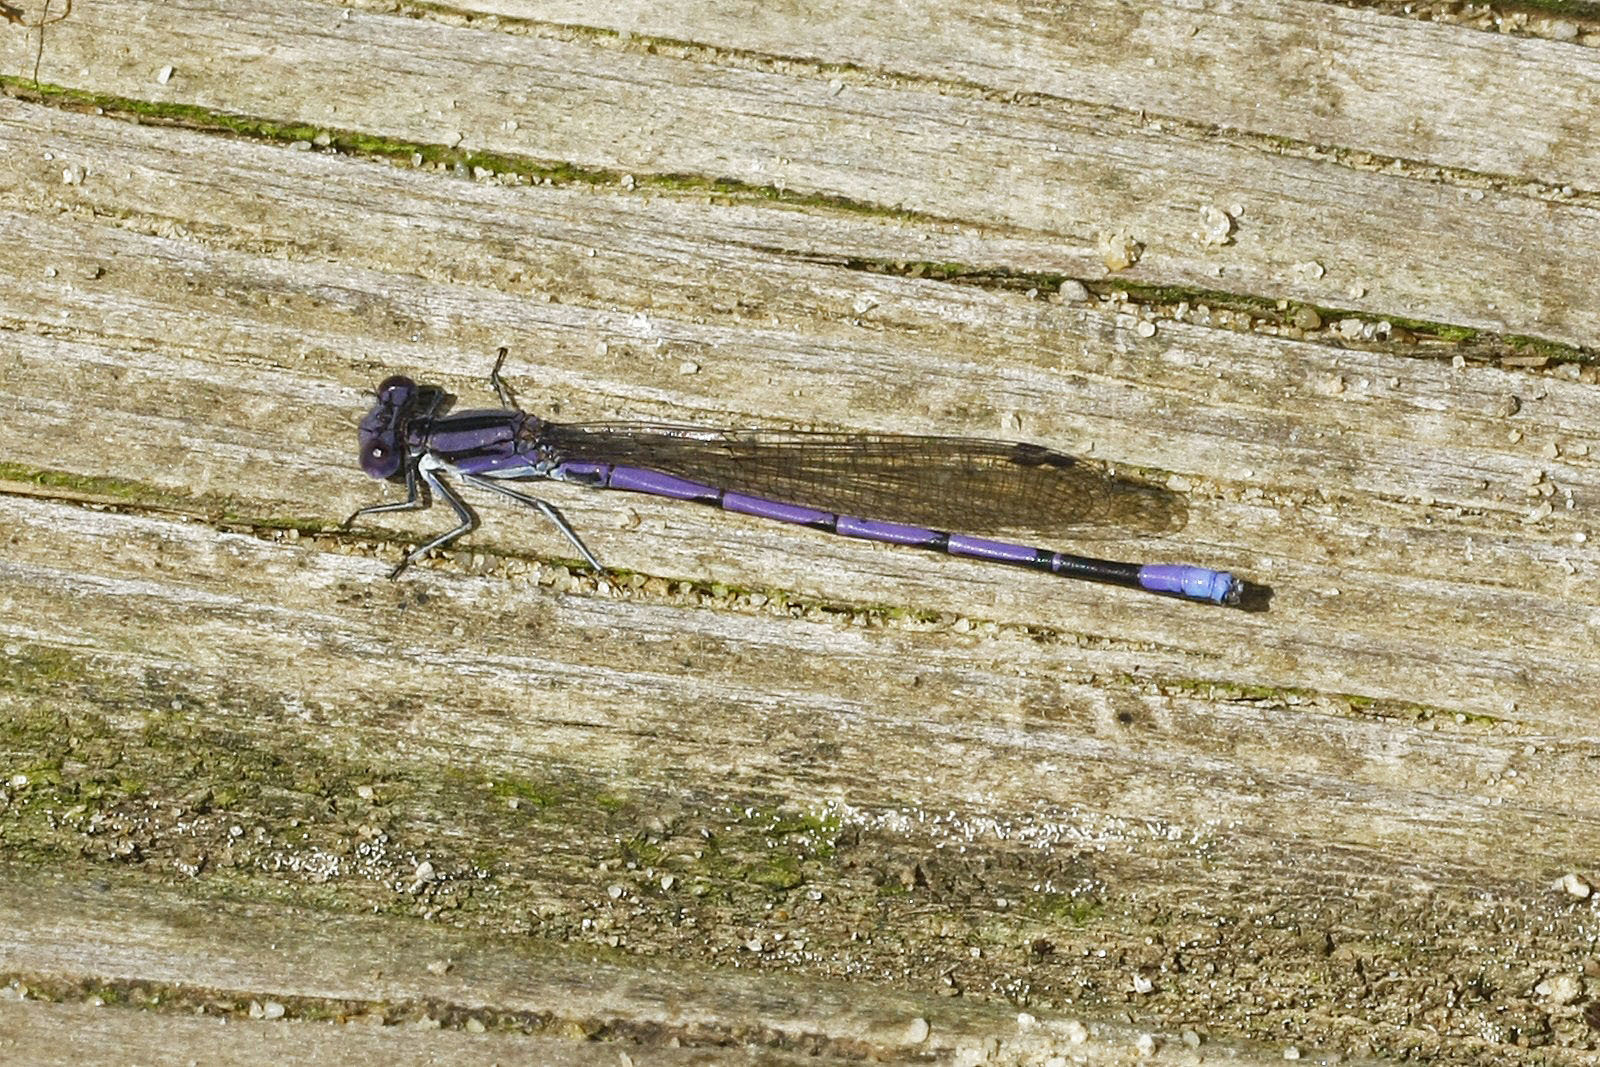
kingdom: Animalia
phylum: Arthropoda
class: Insecta
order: Odonata
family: Coenagrionidae
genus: Argia
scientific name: Argia fumipennis
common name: Variable dancer
